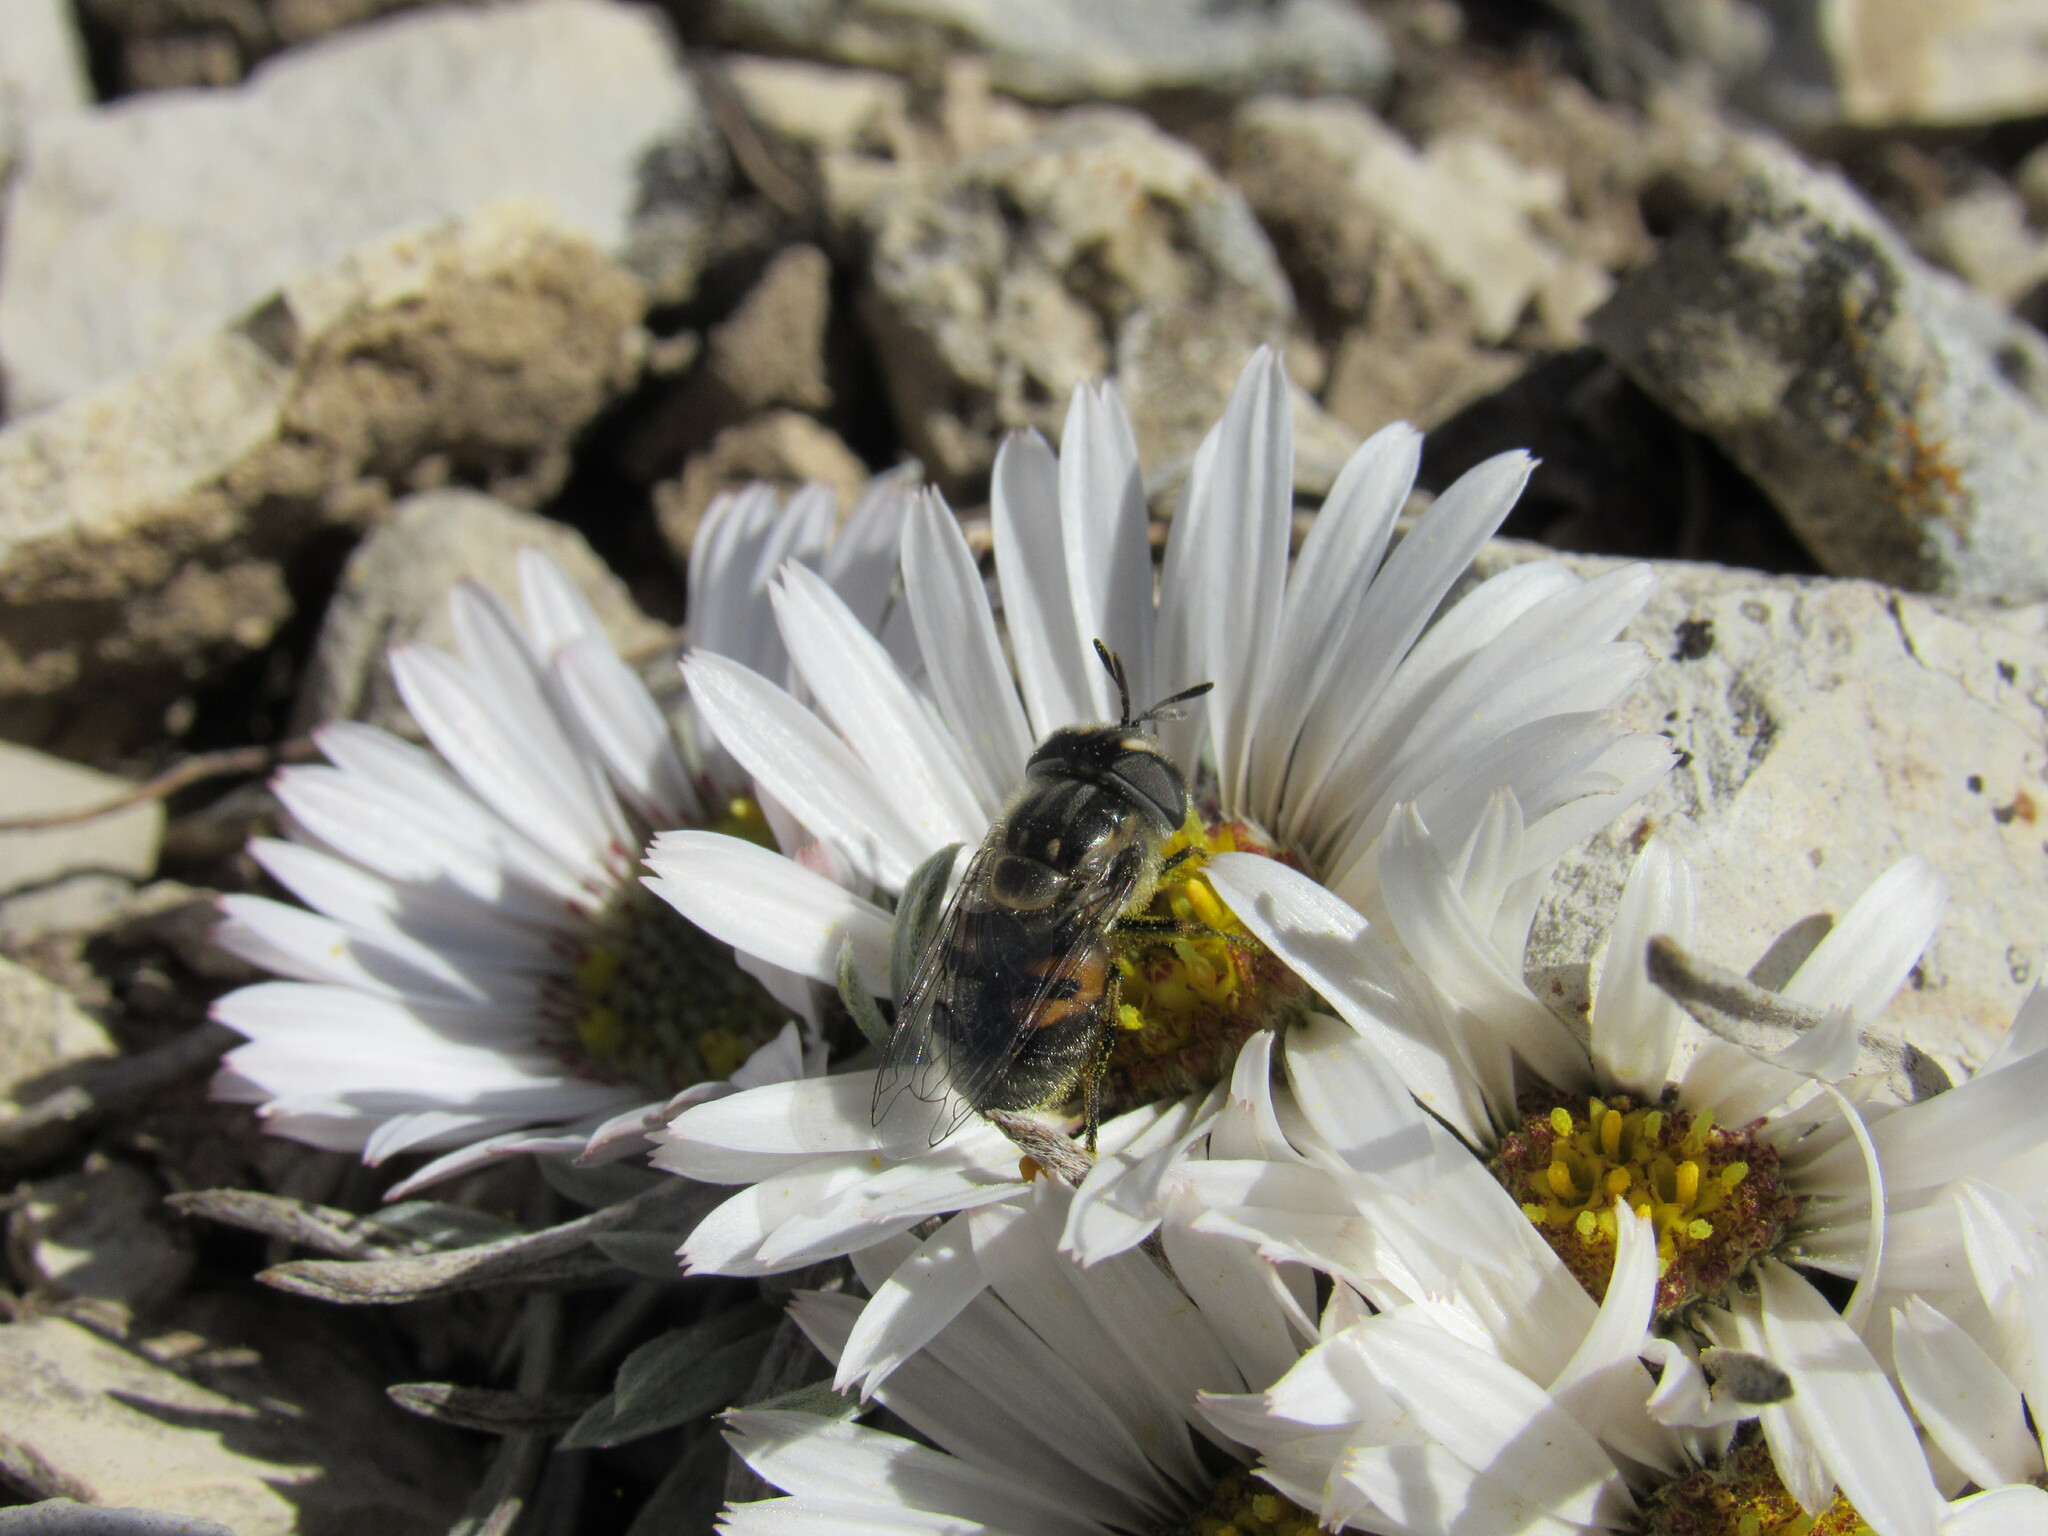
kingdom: Animalia
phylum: Arthropoda
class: Insecta
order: Diptera
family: Syrphidae
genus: Copestylum
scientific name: Copestylum lentum
